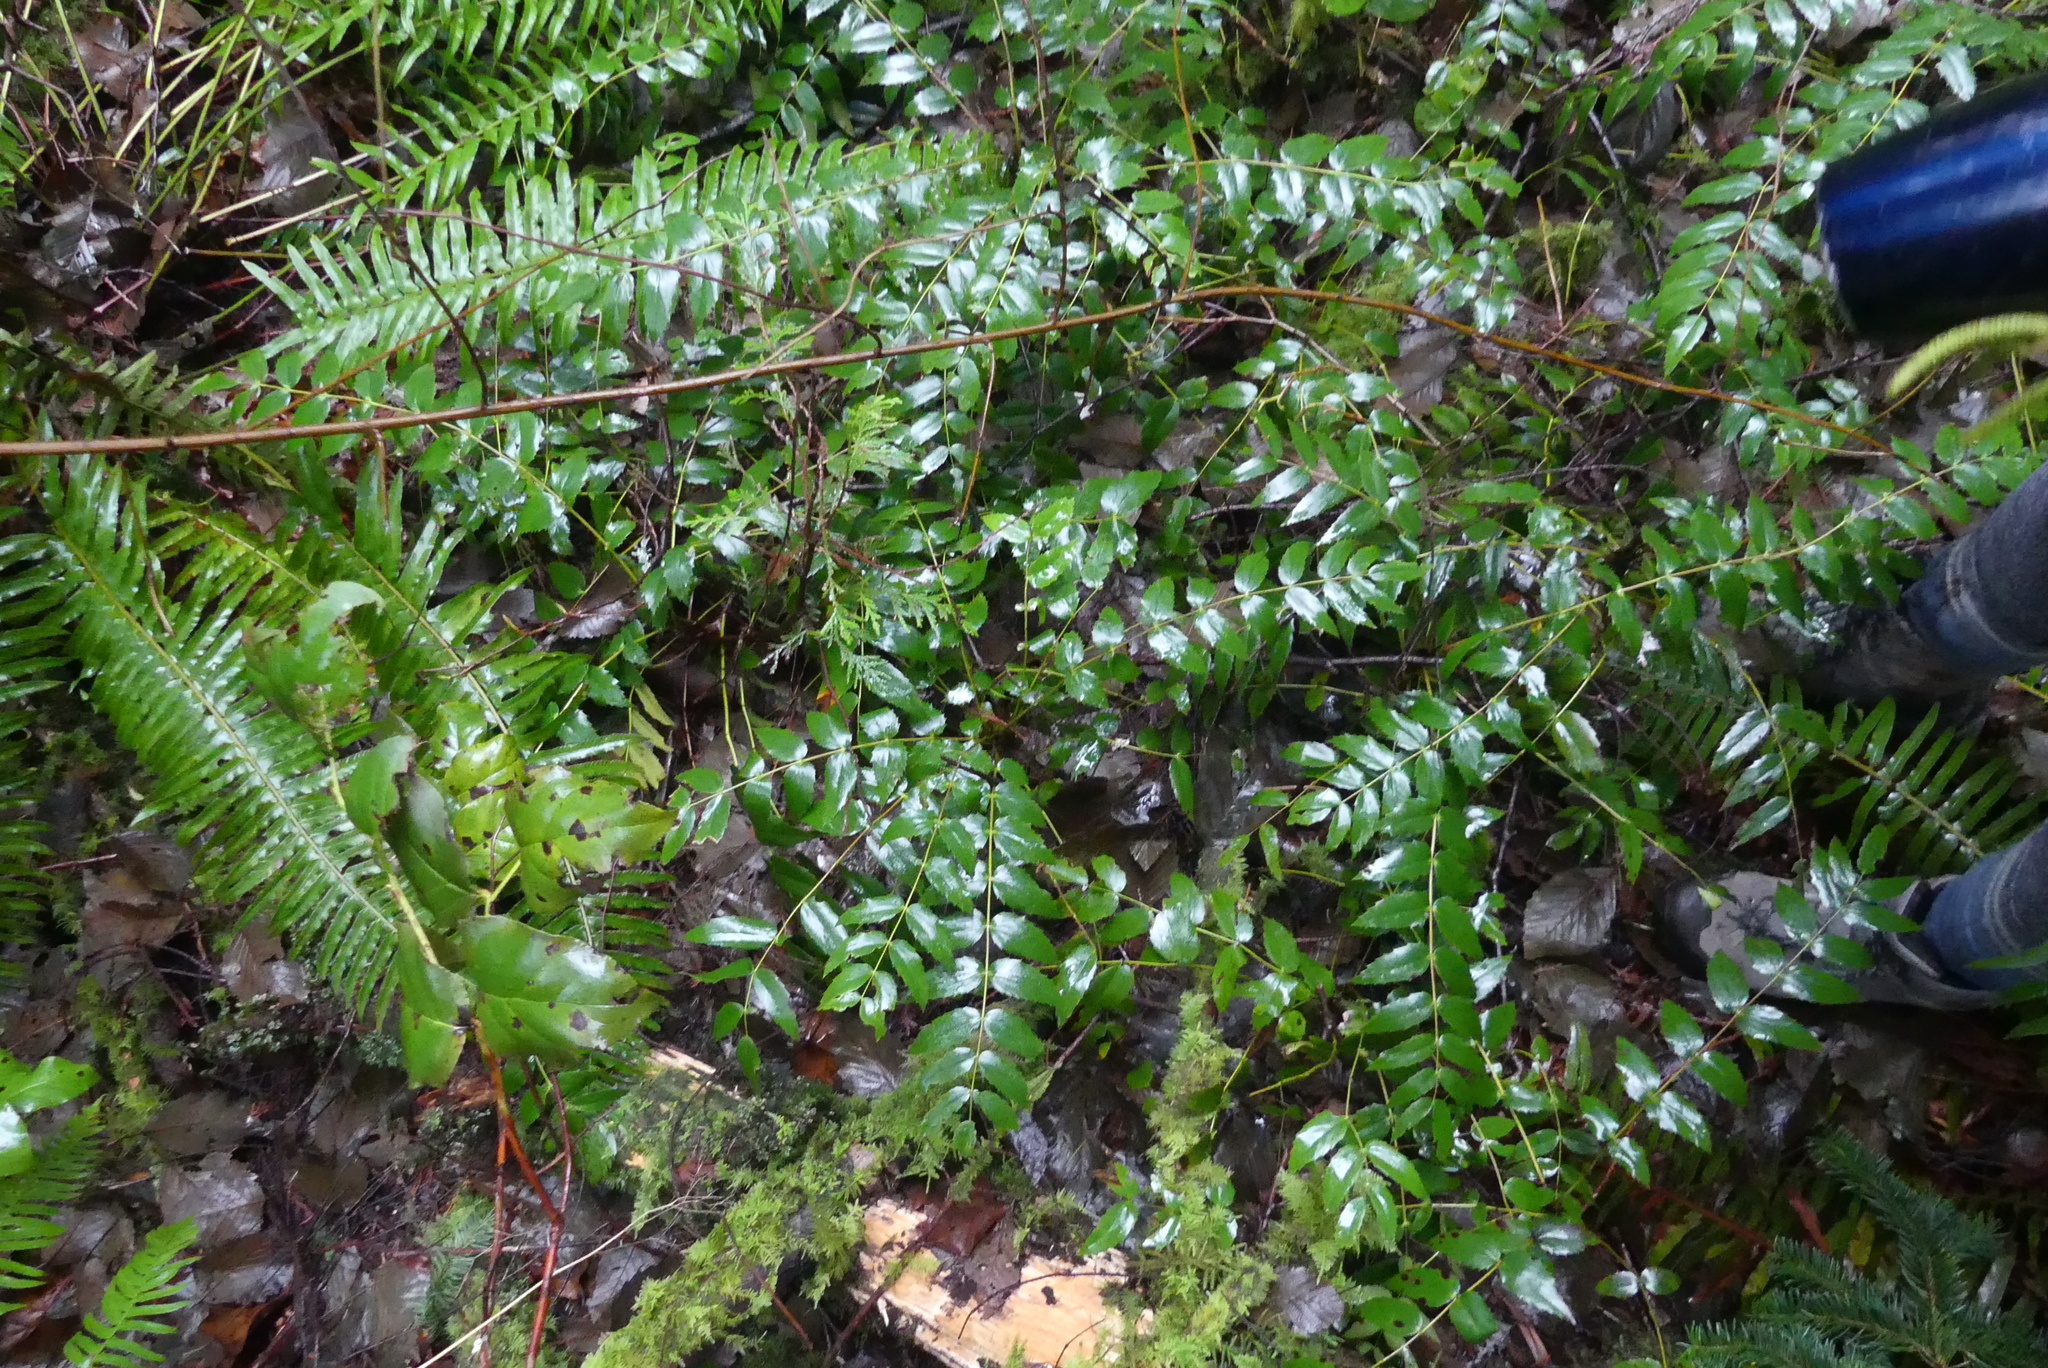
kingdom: Plantae
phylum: Tracheophyta
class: Magnoliopsida
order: Ranunculales
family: Berberidaceae
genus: Mahonia
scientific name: Mahonia nervosa
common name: Cascade oregon-grape
